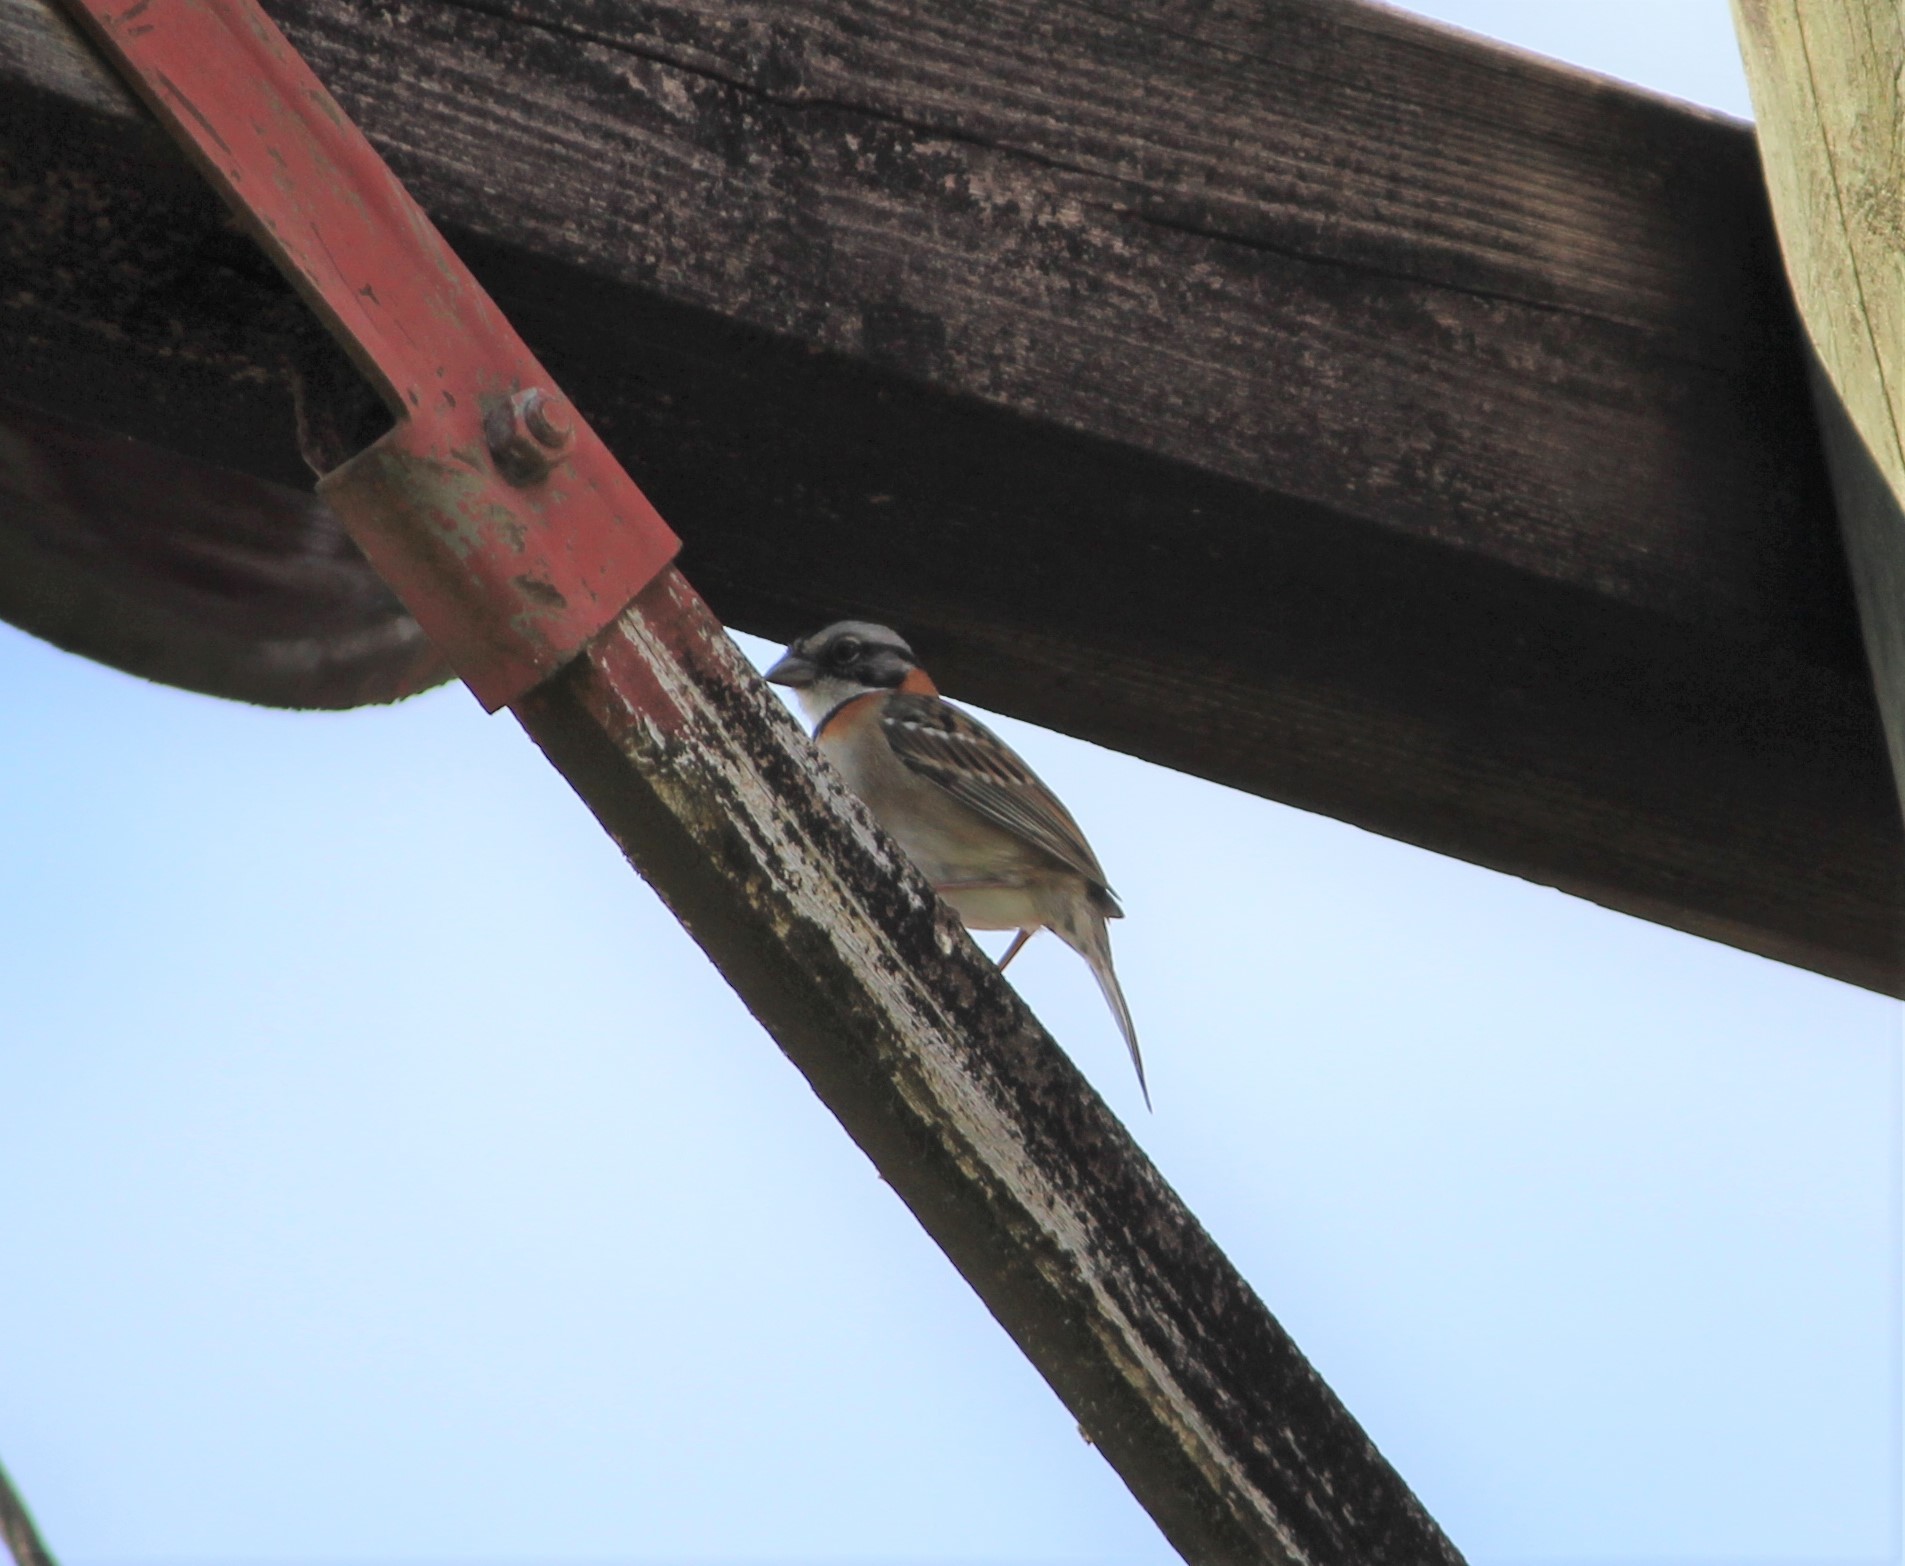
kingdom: Animalia
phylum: Chordata
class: Aves
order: Passeriformes
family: Passerellidae
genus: Zonotrichia
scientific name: Zonotrichia capensis
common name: Rufous-collared sparrow
